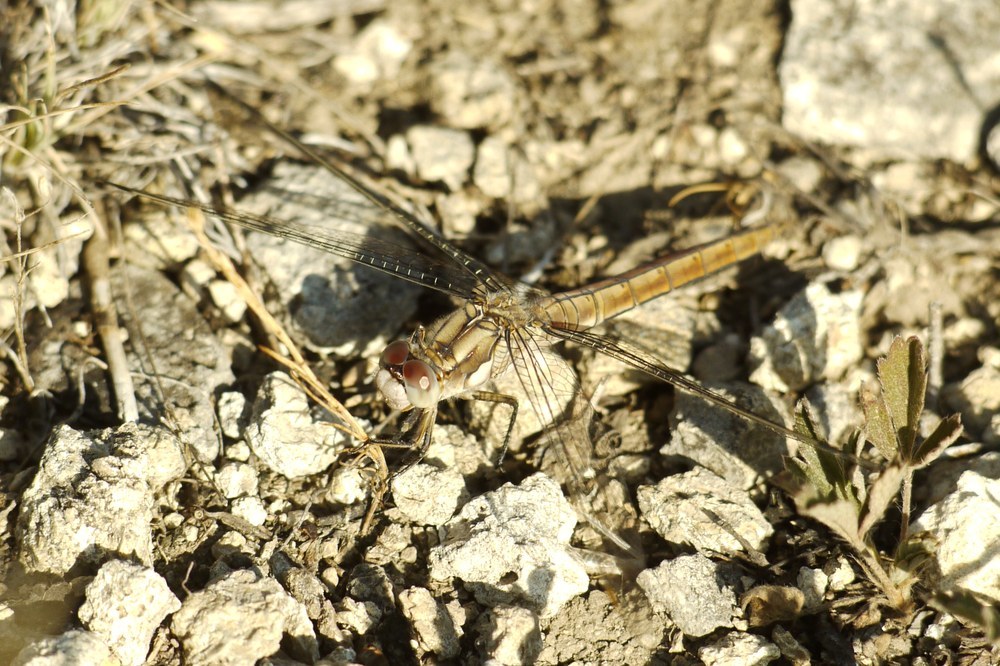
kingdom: Animalia
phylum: Arthropoda
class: Insecta
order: Odonata
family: Libellulidae
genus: Orthetrum
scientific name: Orthetrum brunneum
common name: Southern skimmer
